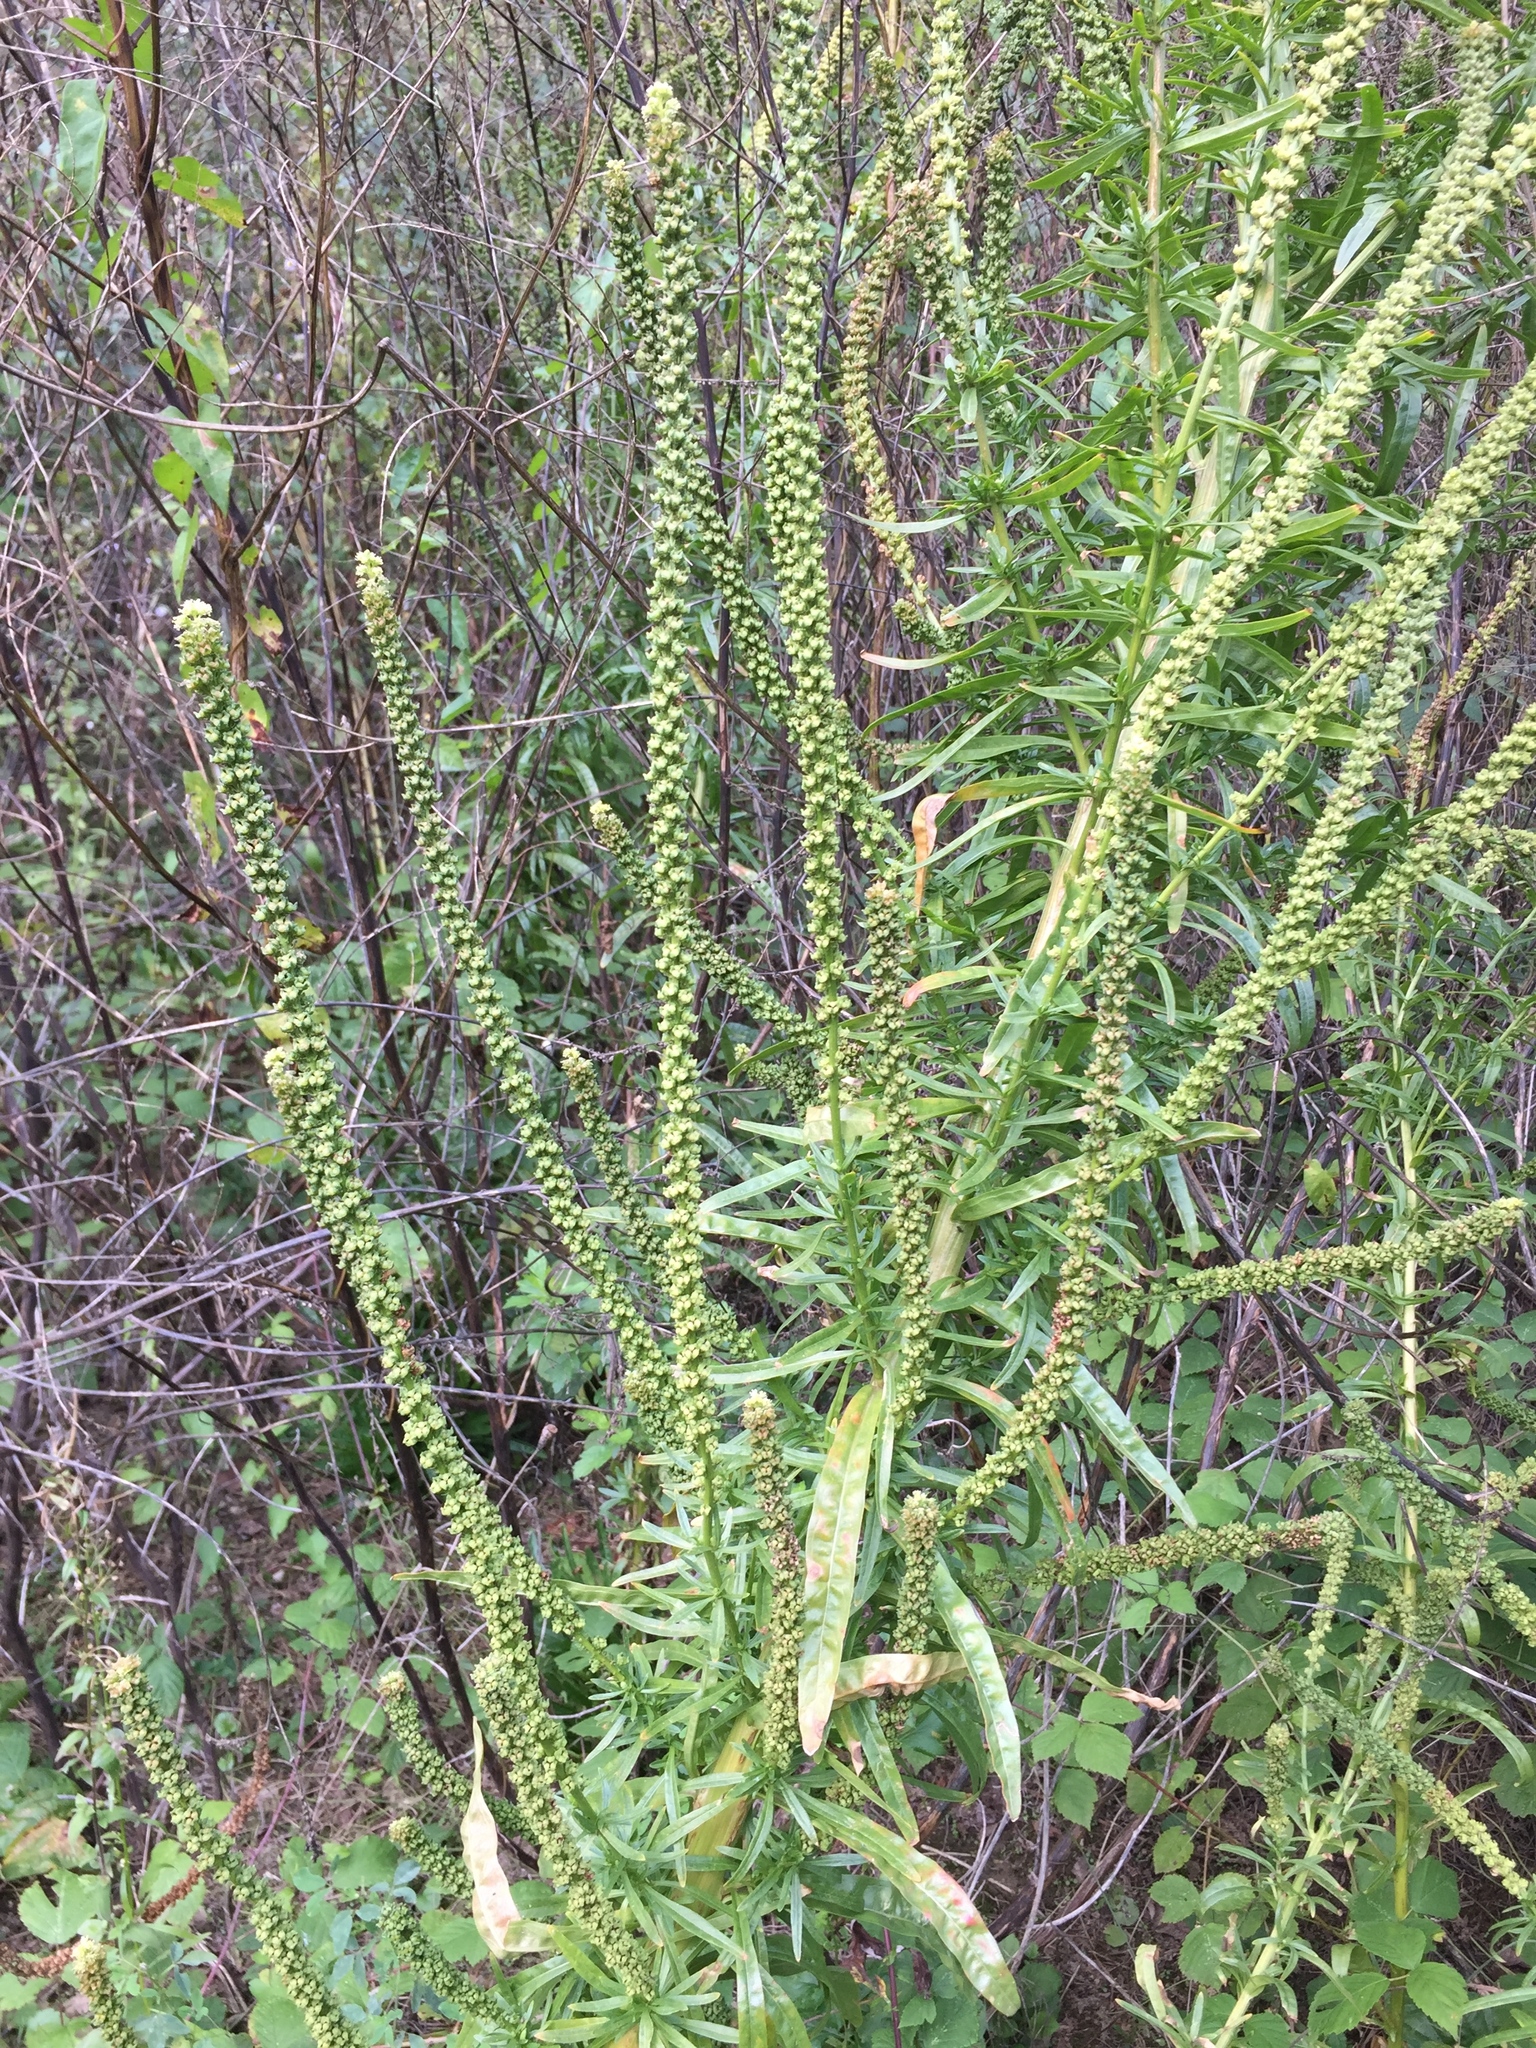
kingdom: Plantae
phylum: Tracheophyta
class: Magnoliopsida
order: Brassicales
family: Resedaceae
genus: Reseda
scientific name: Reseda luteola
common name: Weld
